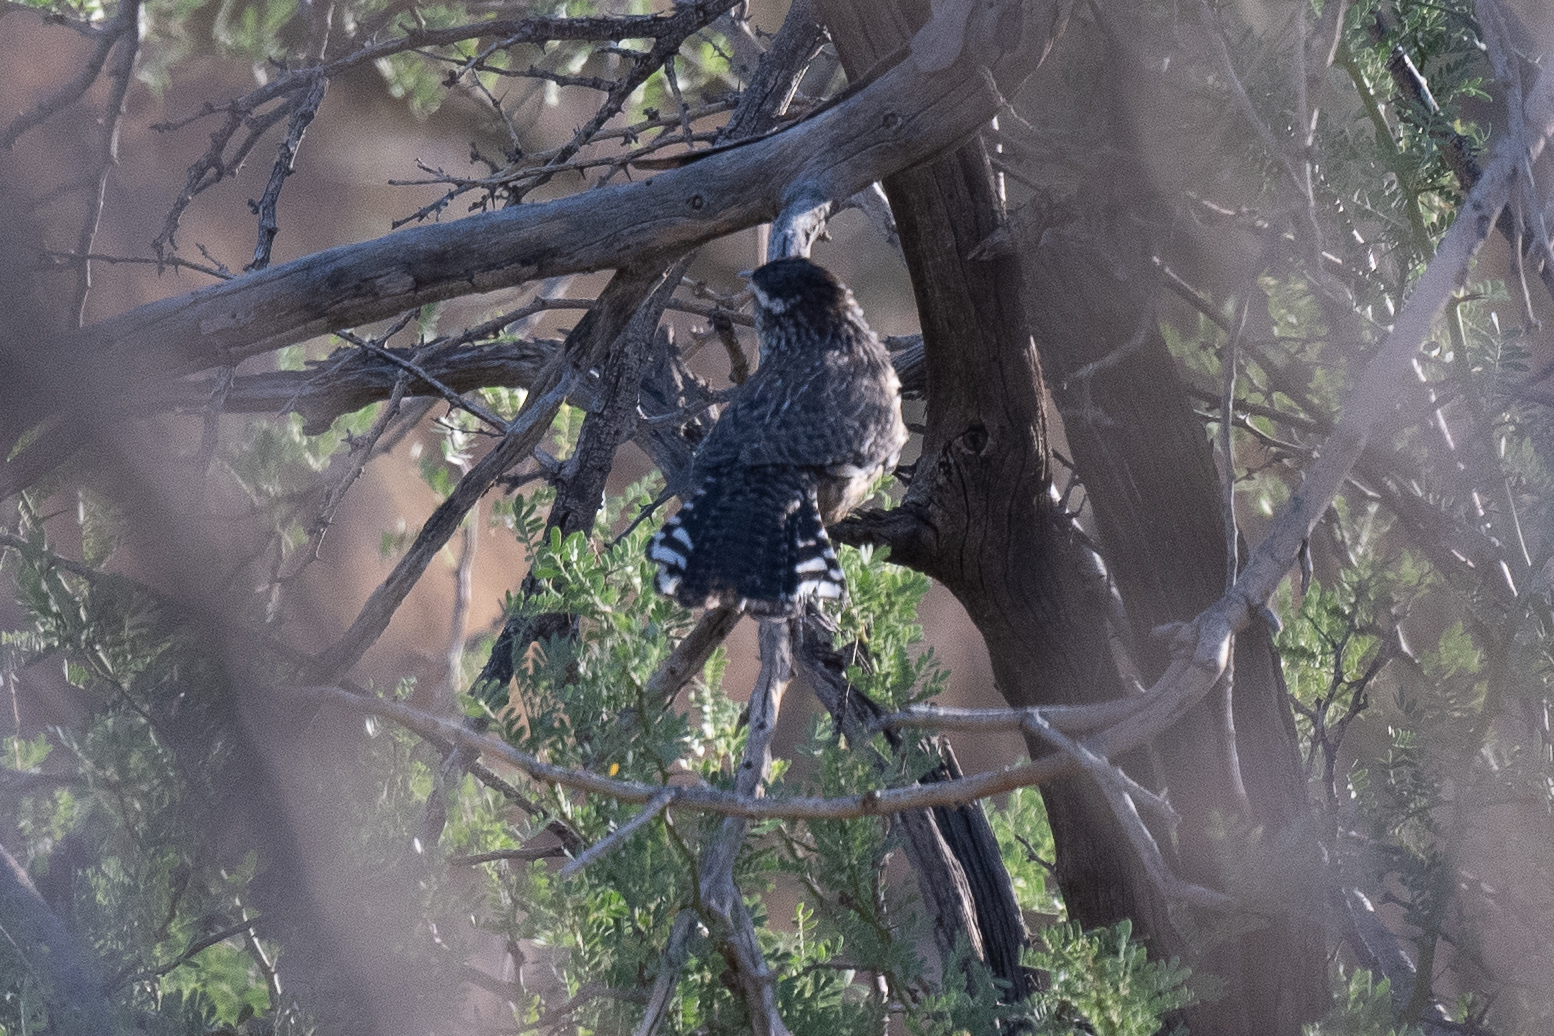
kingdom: Animalia
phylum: Chordata
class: Aves
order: Passeriformes
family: Troglodytidae
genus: Campylorhynchus
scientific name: Campylorhynchus brunneicapillus
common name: Cactus wren
